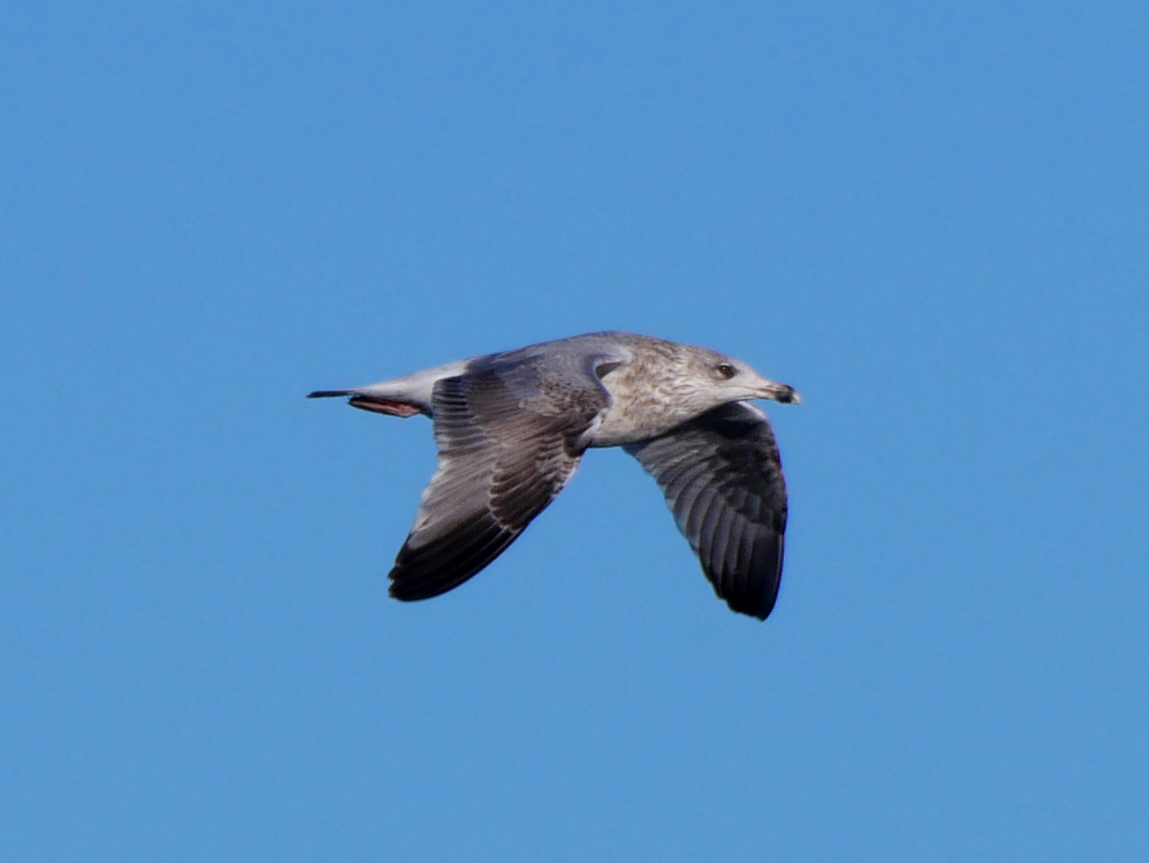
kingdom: Animalia
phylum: Chordata
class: Aves
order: Charadriiformes
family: Laridae
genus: Larus
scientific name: Larus argentatus
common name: Herring gull
